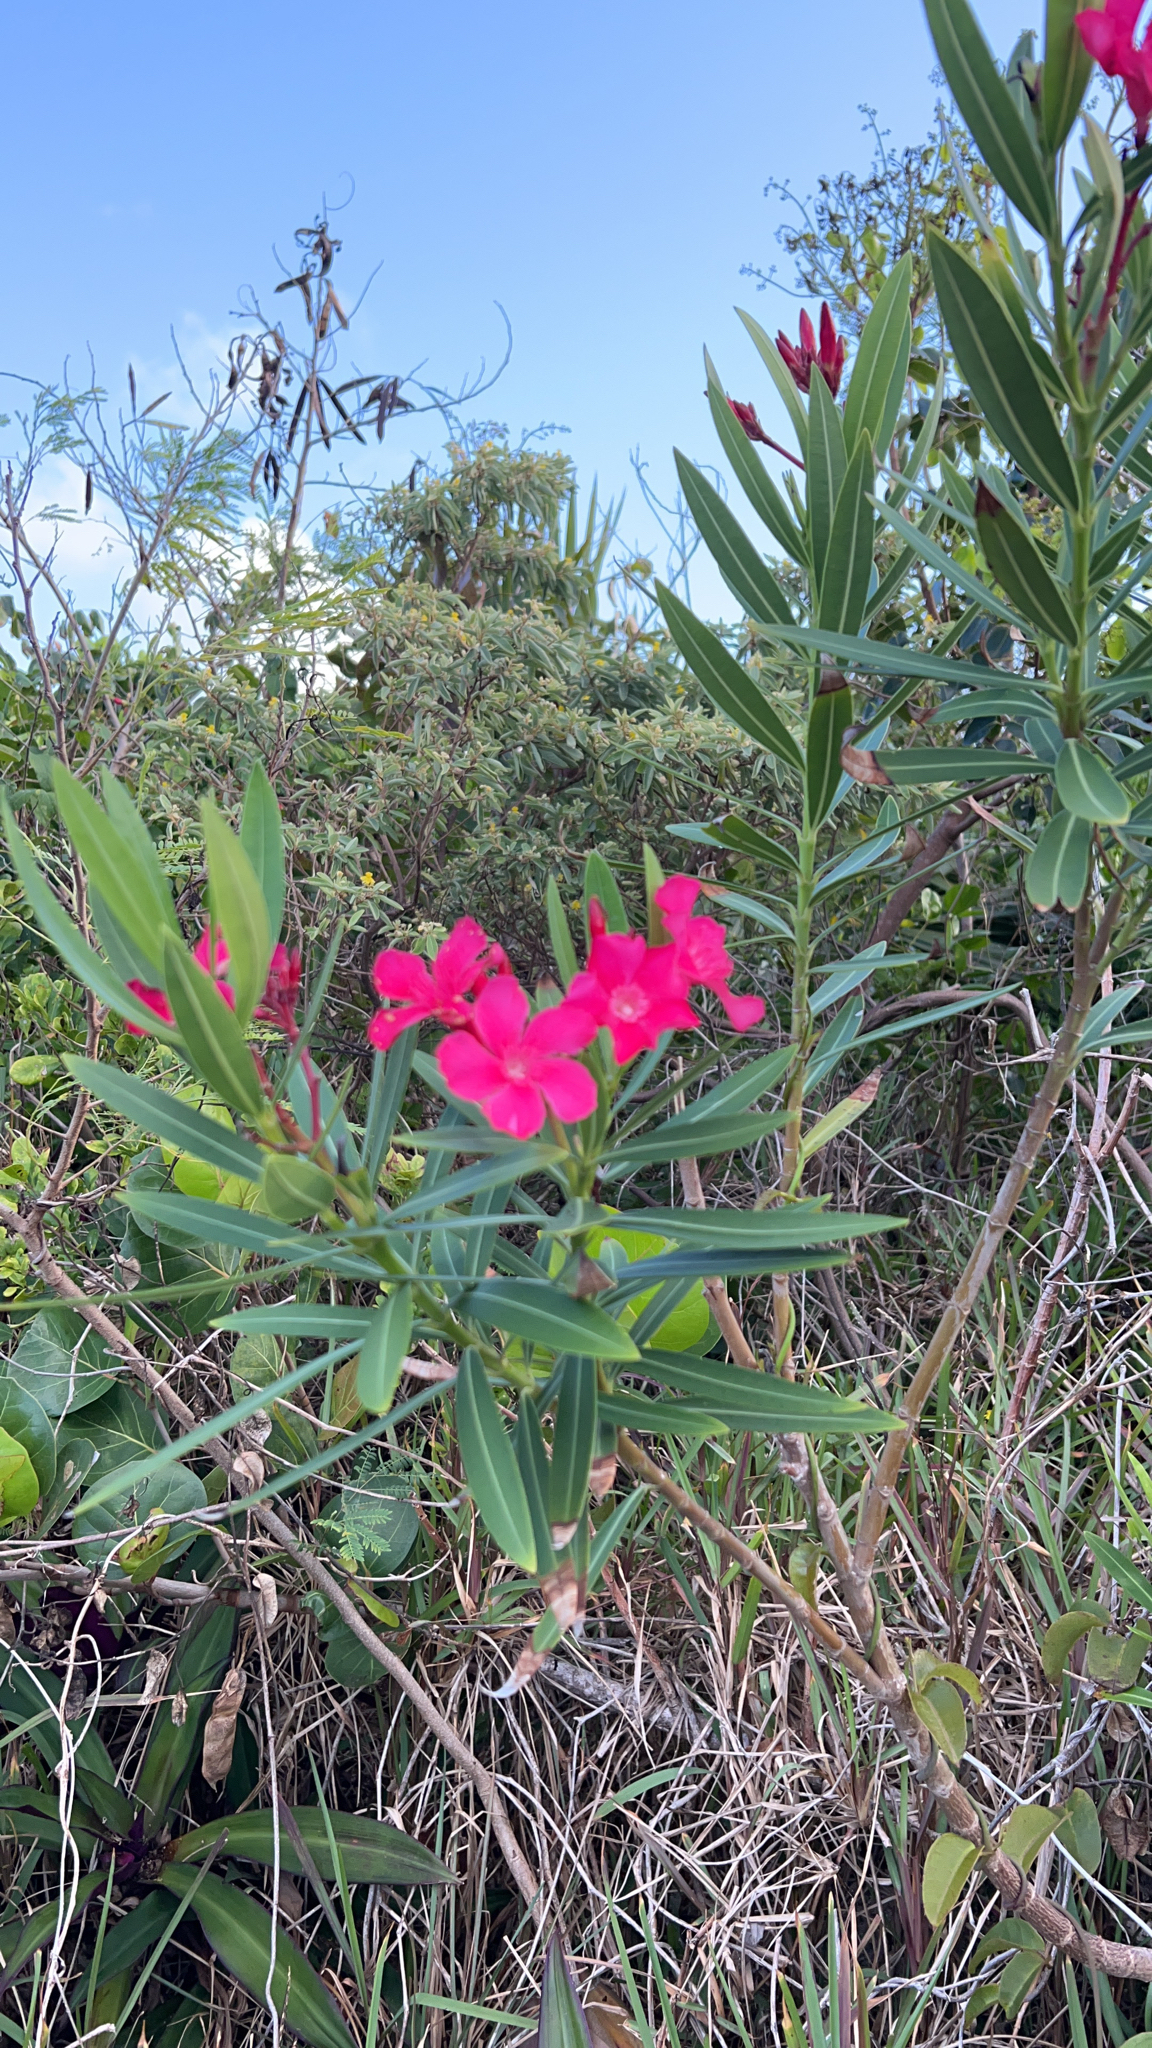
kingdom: Plantae
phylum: Tracheophyta
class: Magnoliopsida
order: Gentianales
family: Apocynaceae
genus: Nerium
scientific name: Nerium oleander
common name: Oleander
